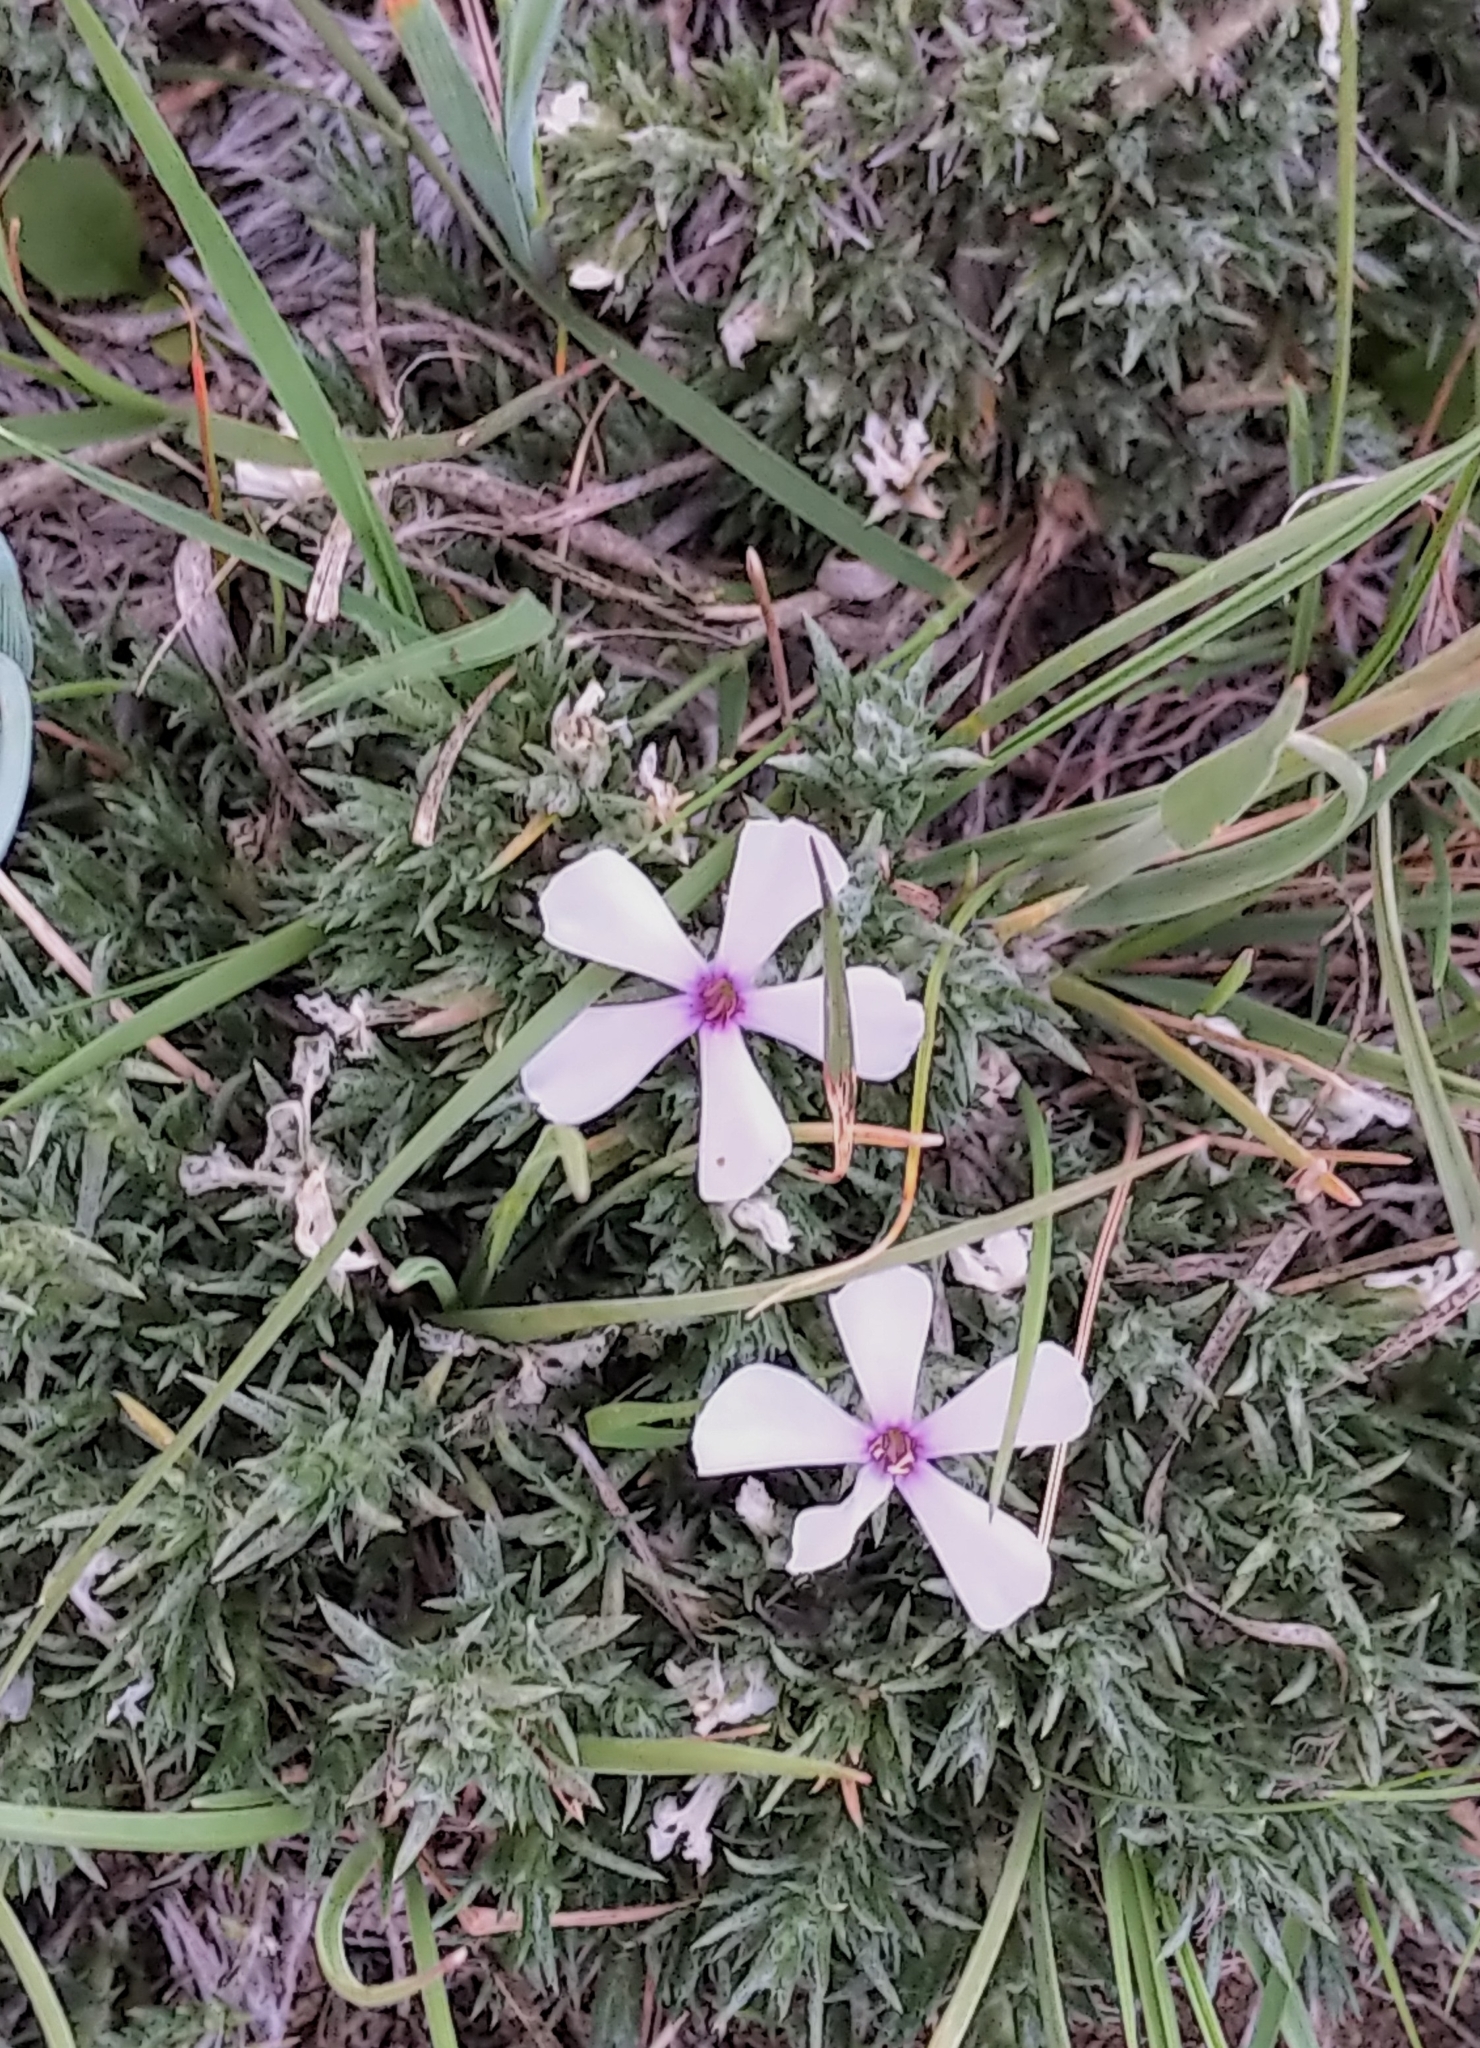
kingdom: Plantae
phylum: Tracheophyta
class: Magnoliopsida
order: Ericales
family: Polemoniaceae
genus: Phlox
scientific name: Phlox hoodii
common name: Moss phlox
